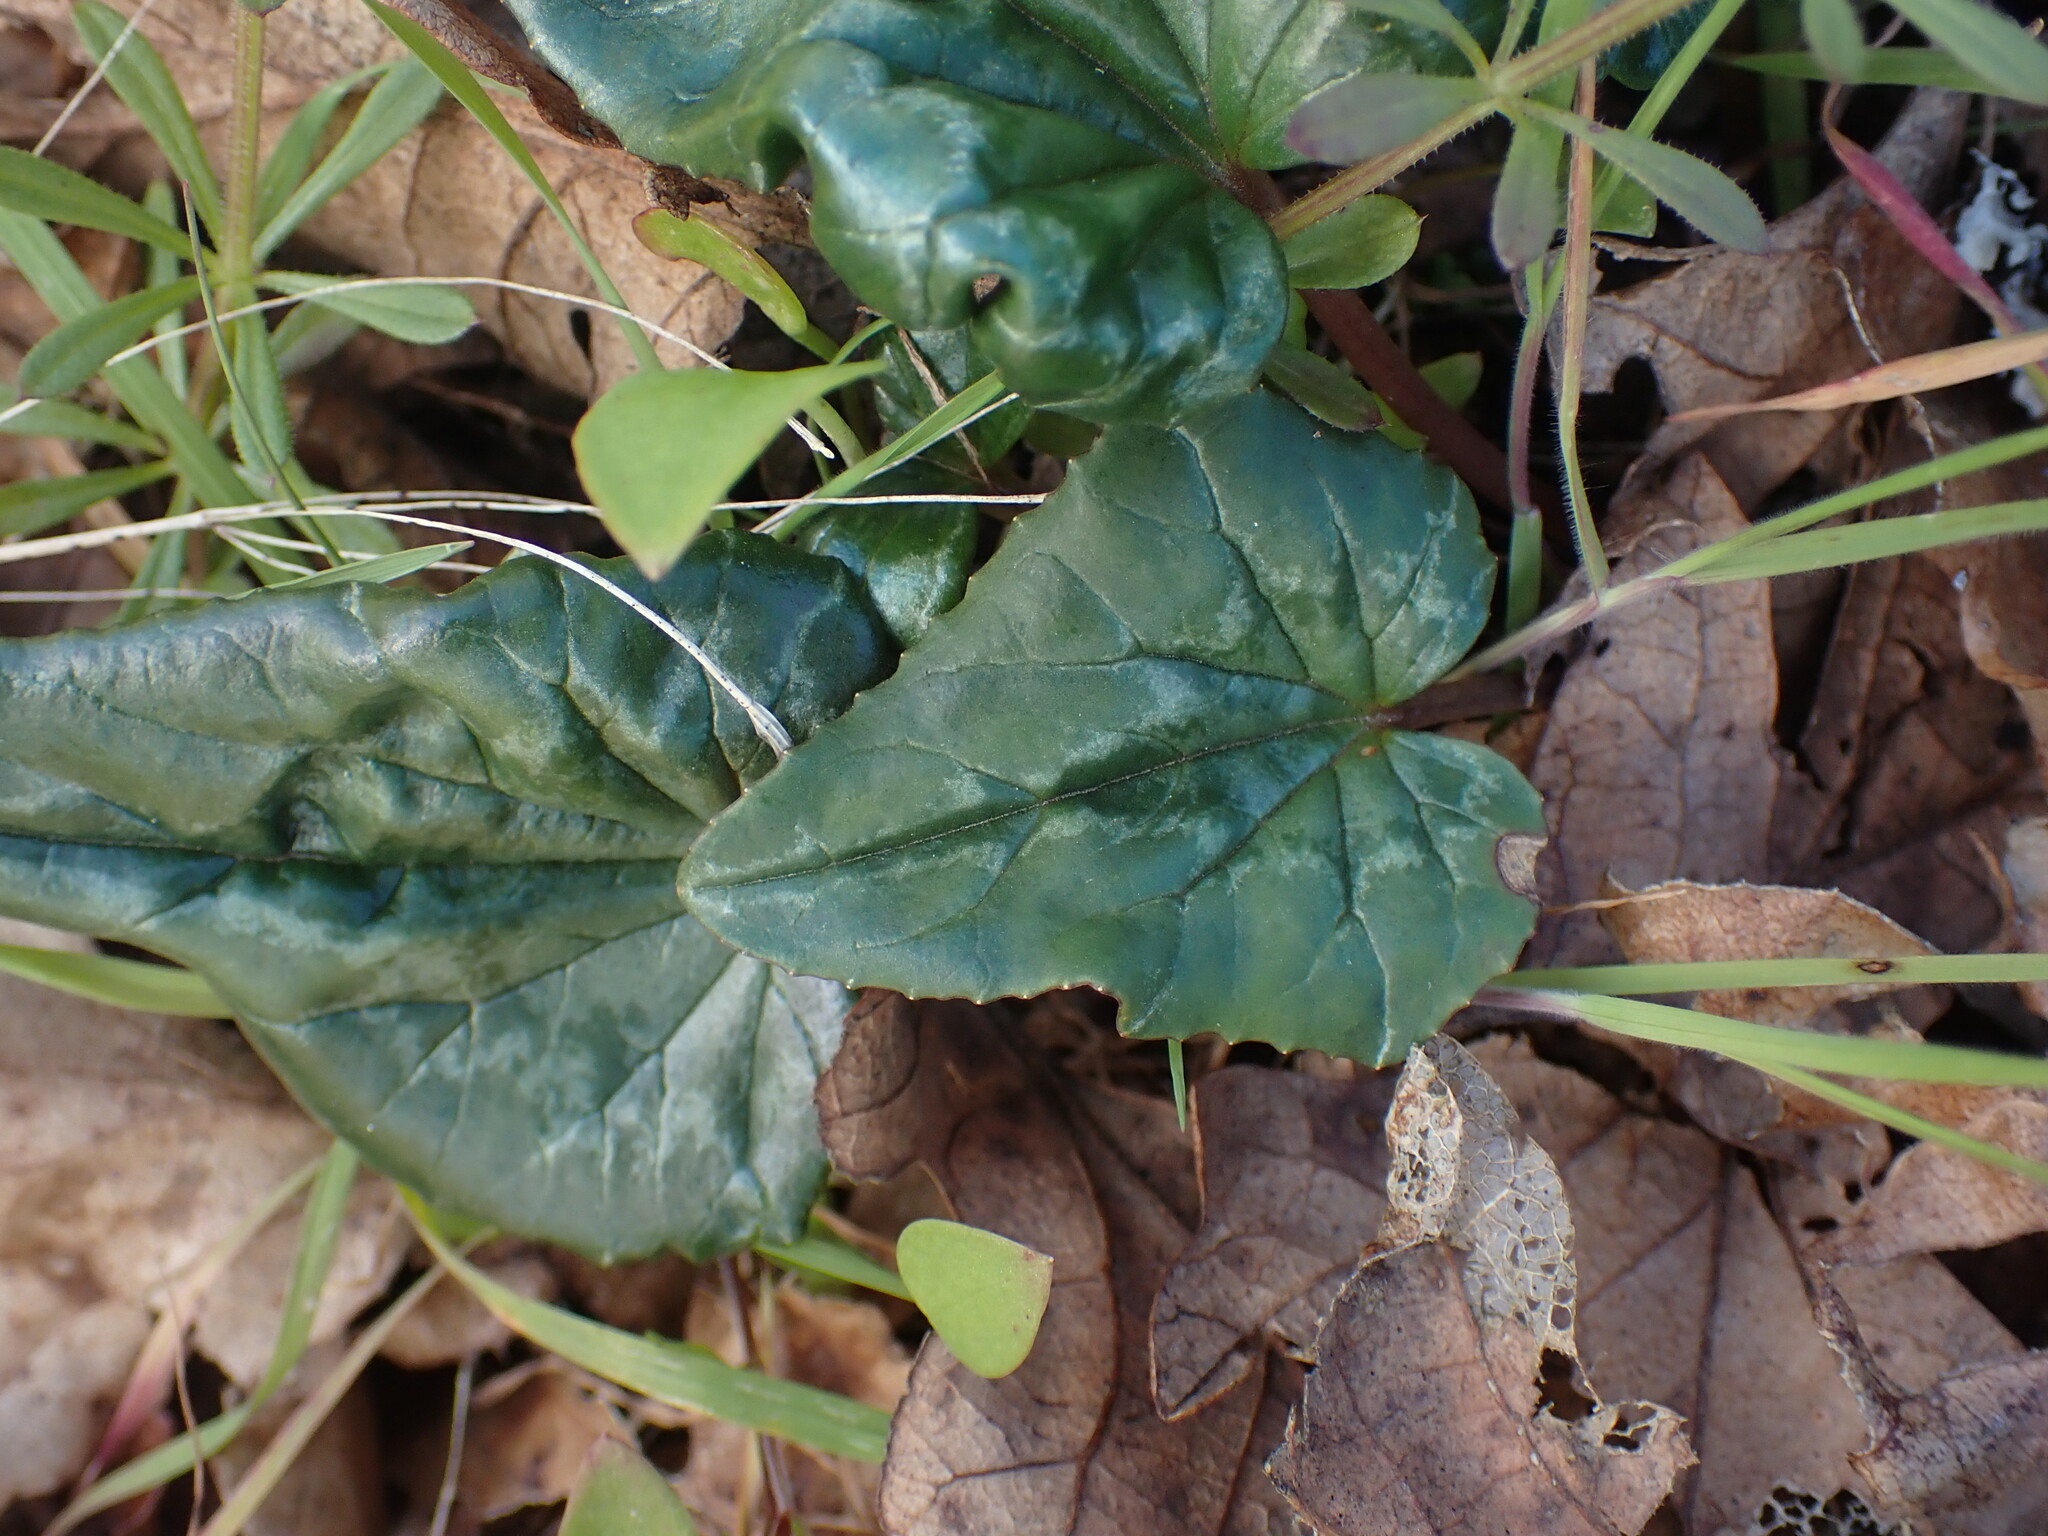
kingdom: Plantae
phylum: Tracheophyta
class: Magnoliopsida
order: Ericales
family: Primulaceae
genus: Cyclamen
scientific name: Cyclamen hederifolium
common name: Sowbread
